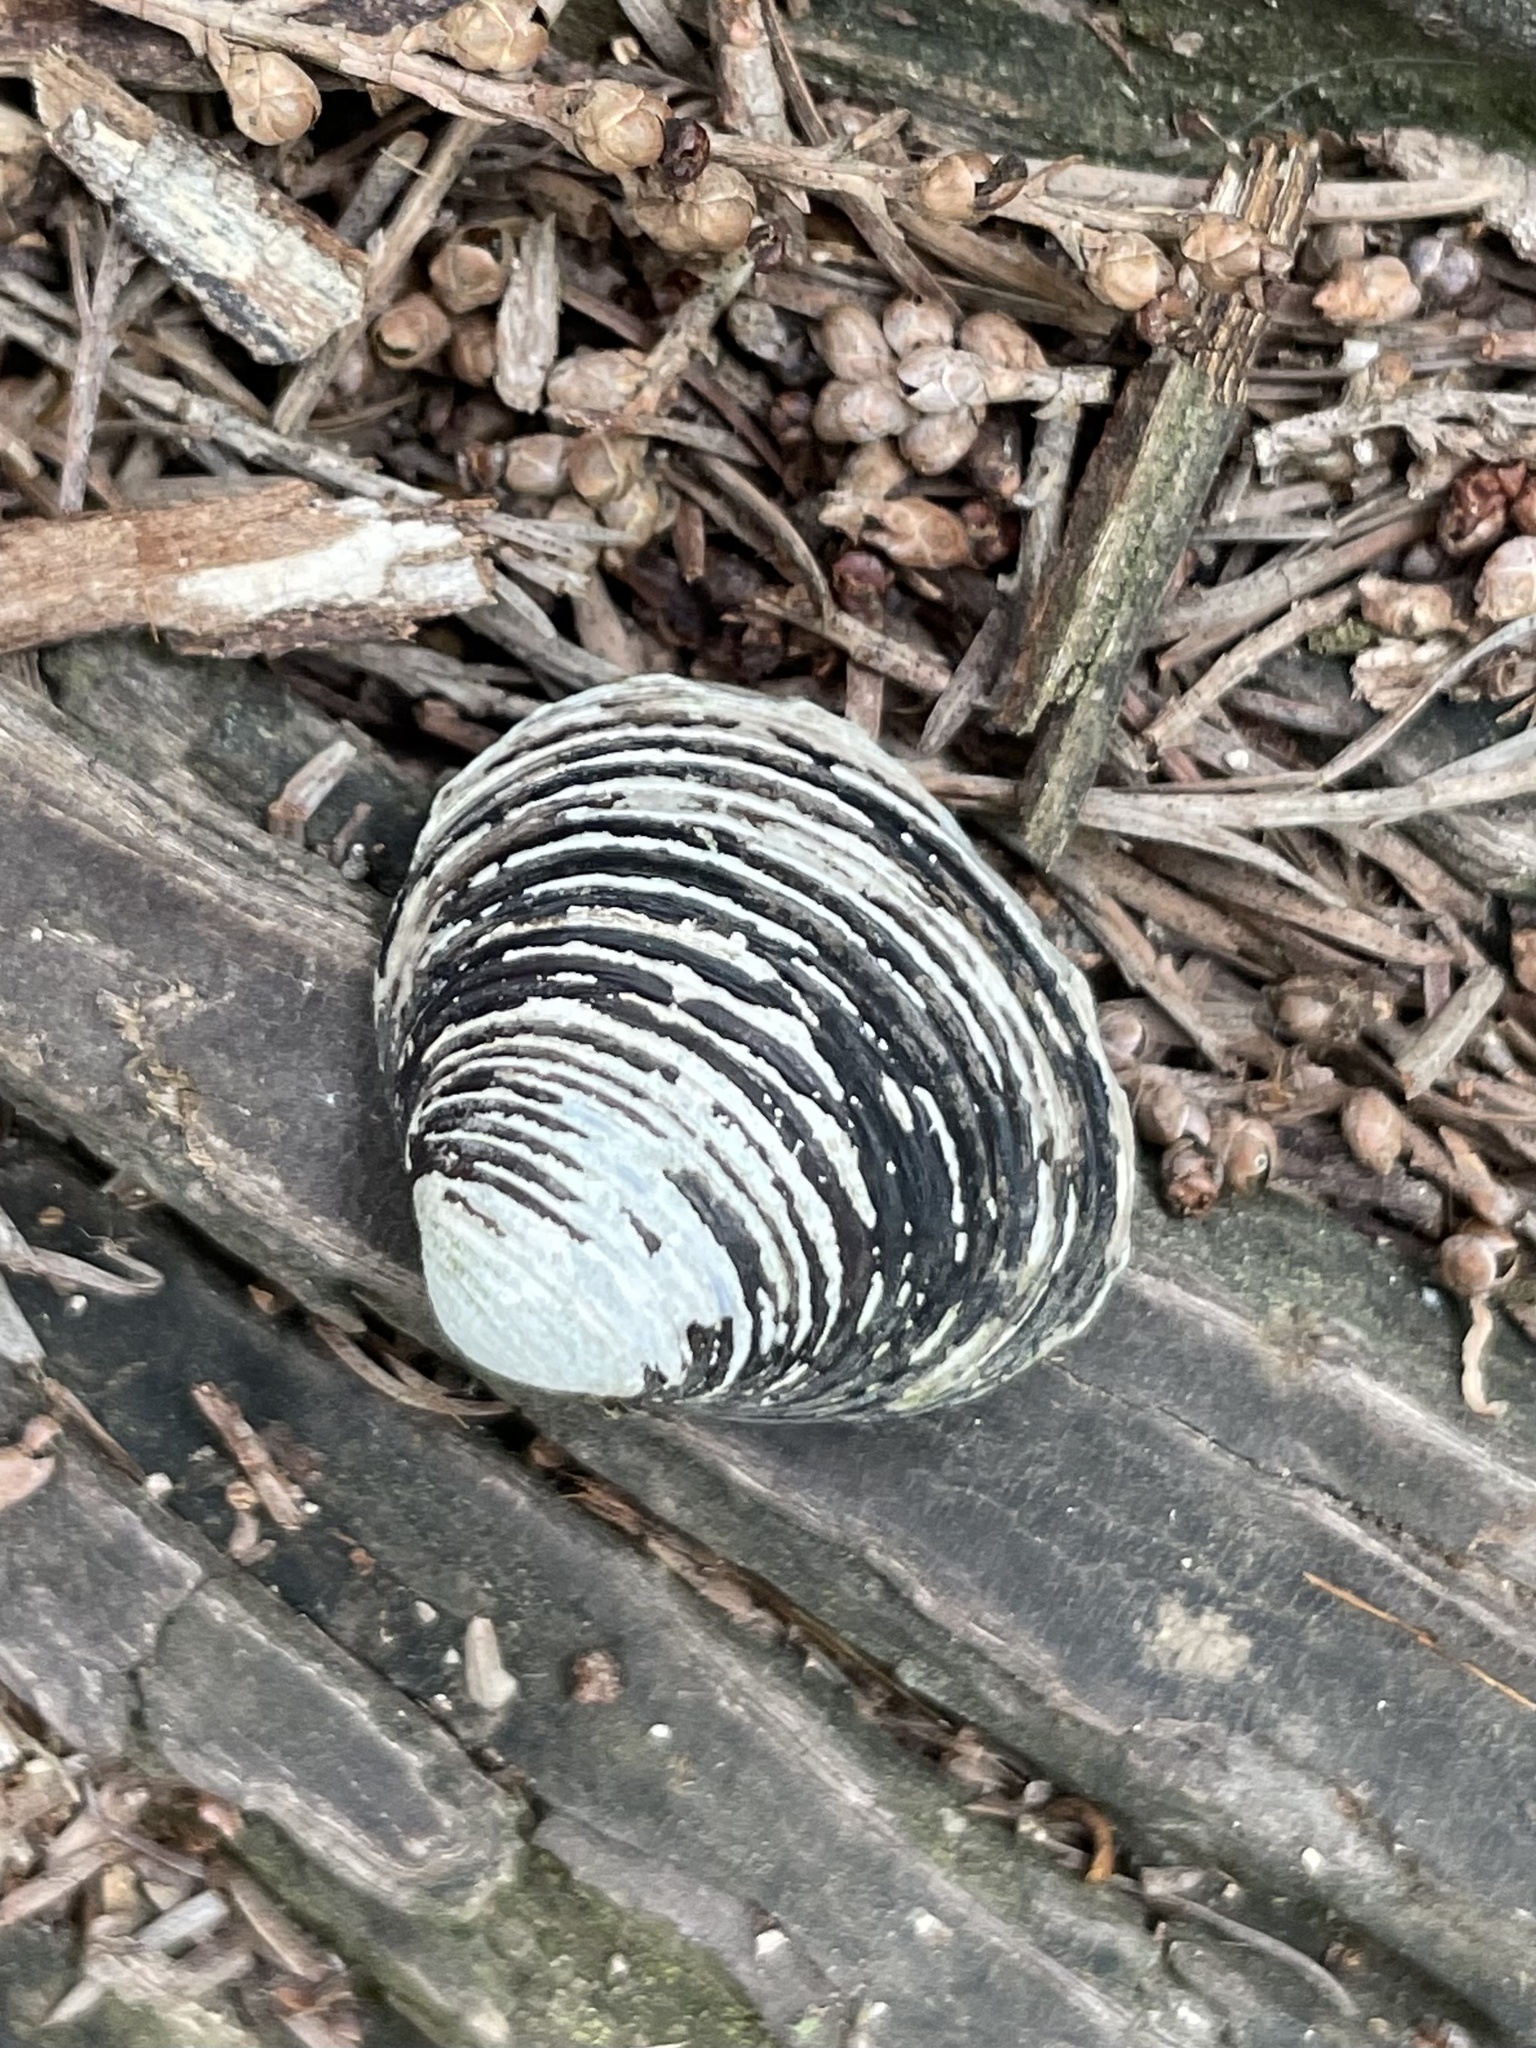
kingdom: Animalia
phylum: Mollusca
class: Bivalvia
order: Venerida
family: Cyrenidae
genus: Corbicula
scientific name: Corbicula fluminea
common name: Asian clam
